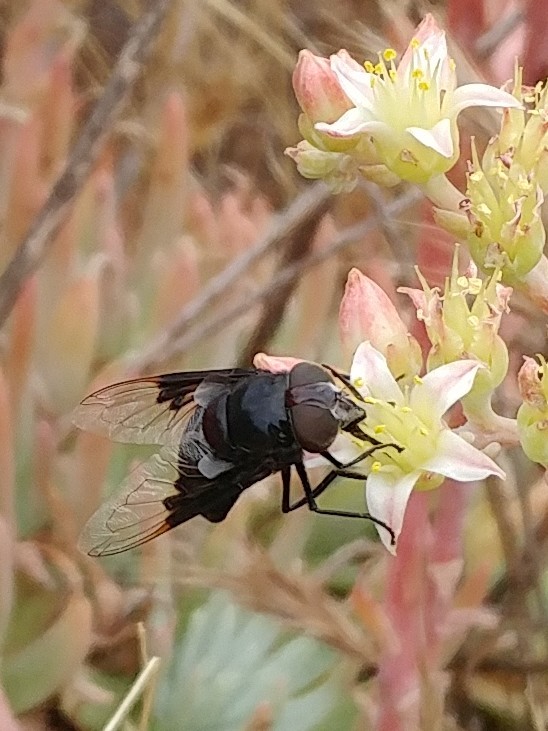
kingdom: Animalia
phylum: Arthropoda
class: Insecta
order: Diptera
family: Syrphidae
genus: Copestylum
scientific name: Copestylum mexicanum
